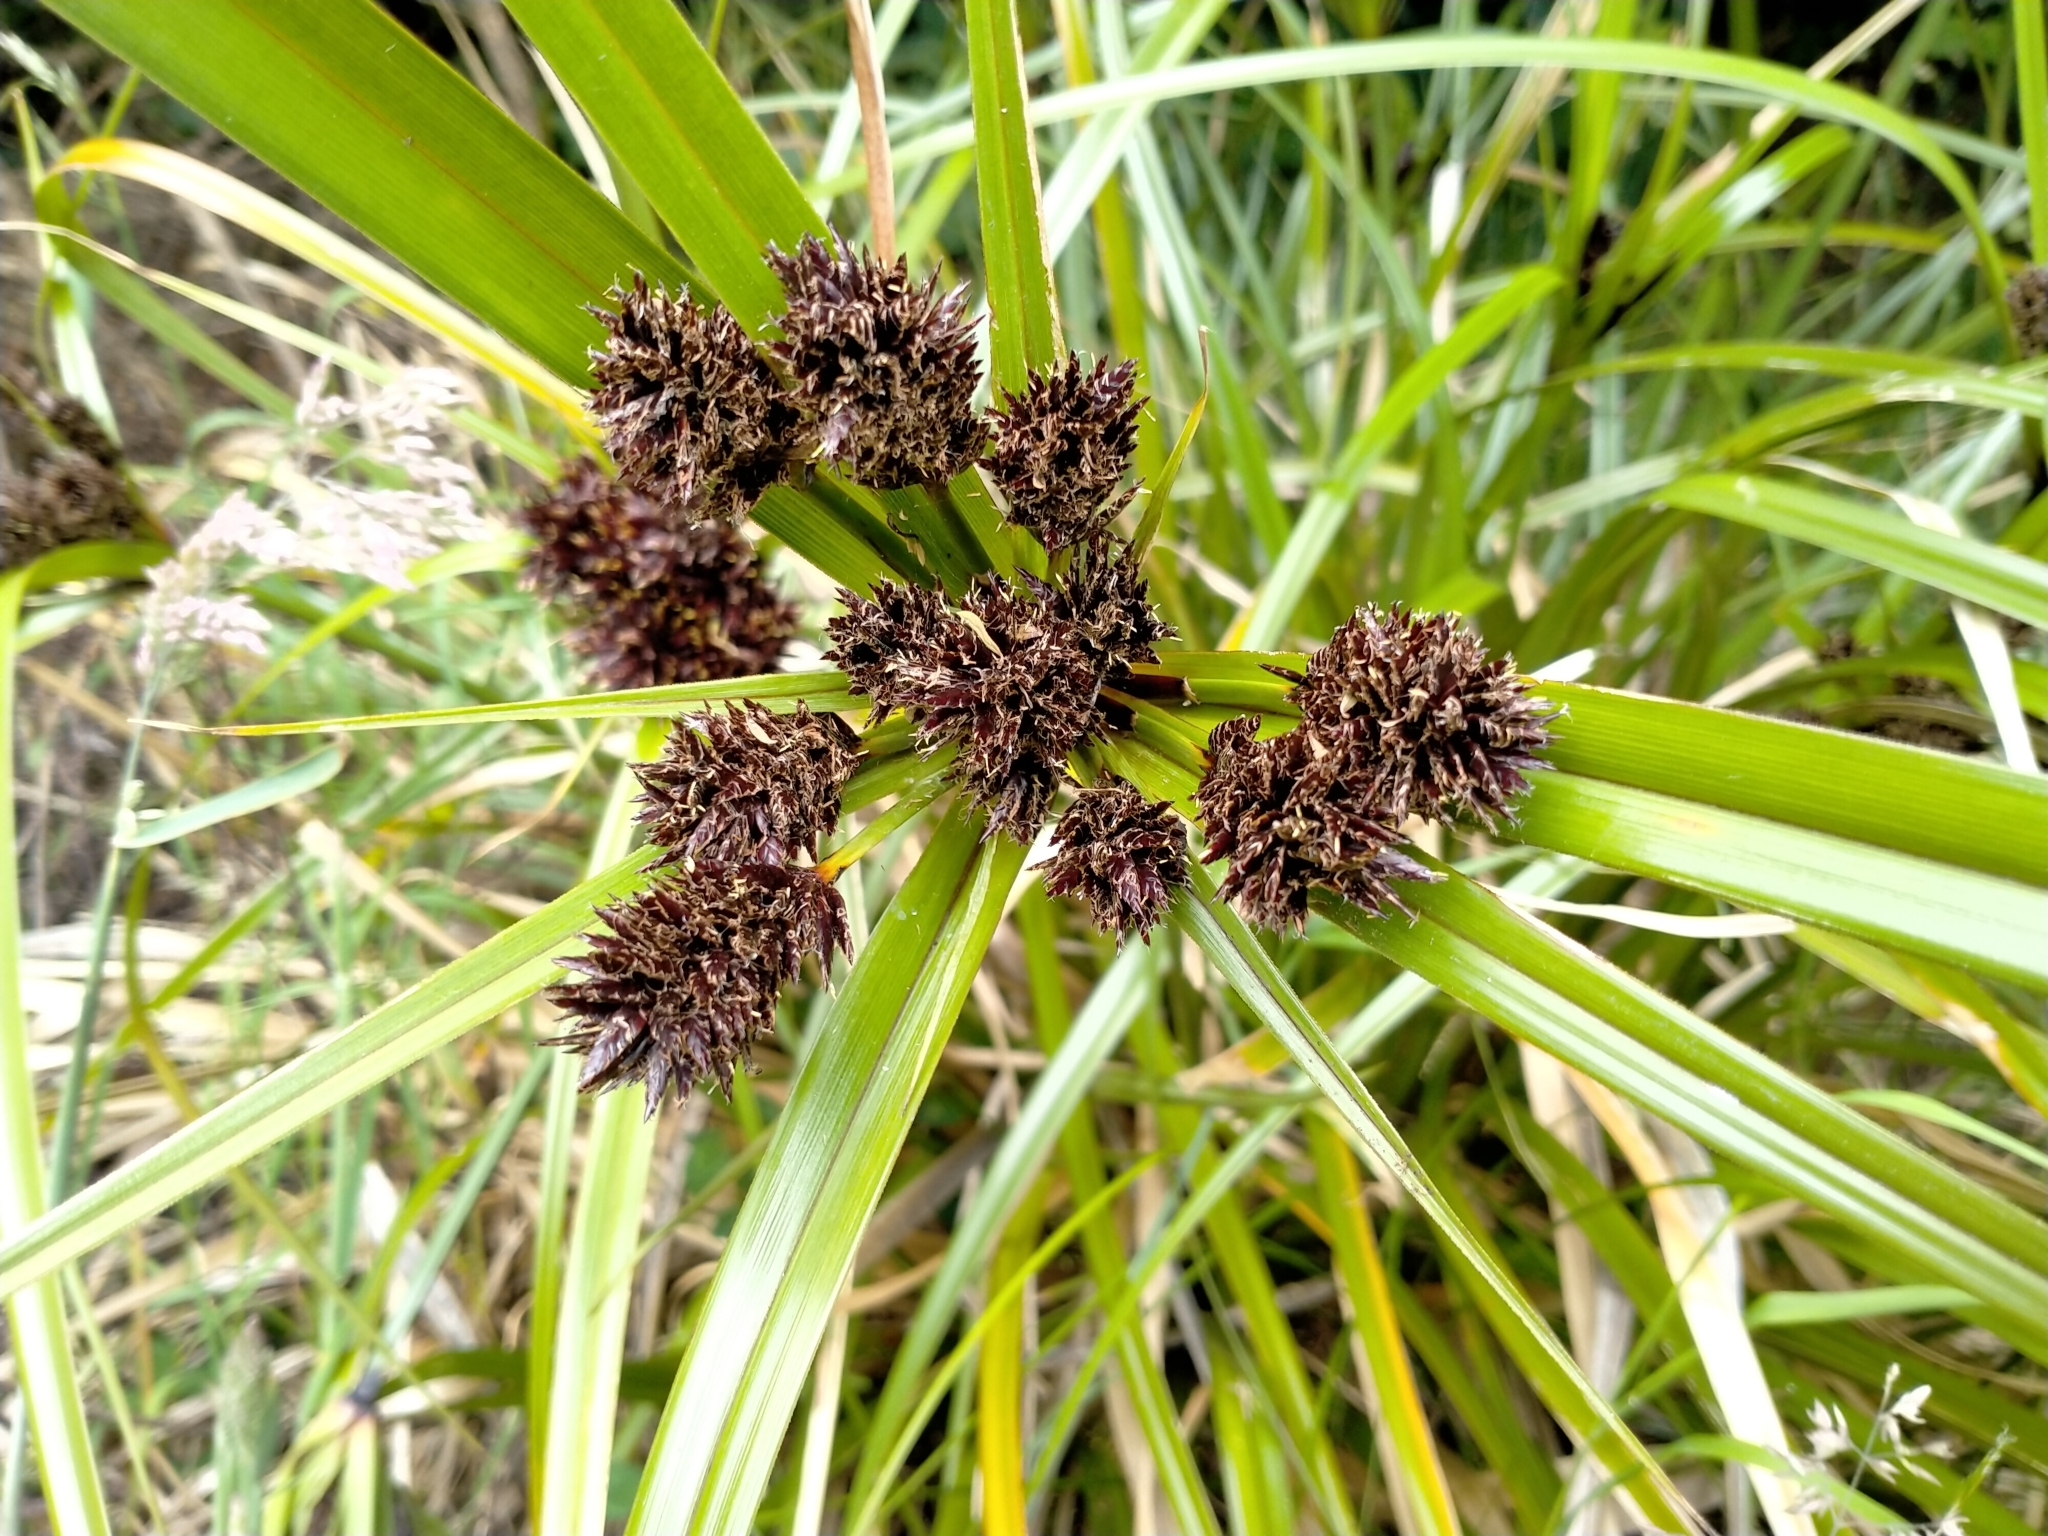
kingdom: Plantae
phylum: Tracheophyta
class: Liliopsida
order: Poales
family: Cyperaceae
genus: Cyperus
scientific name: Cyperus ustulatus
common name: Giant umbrella-sedge
